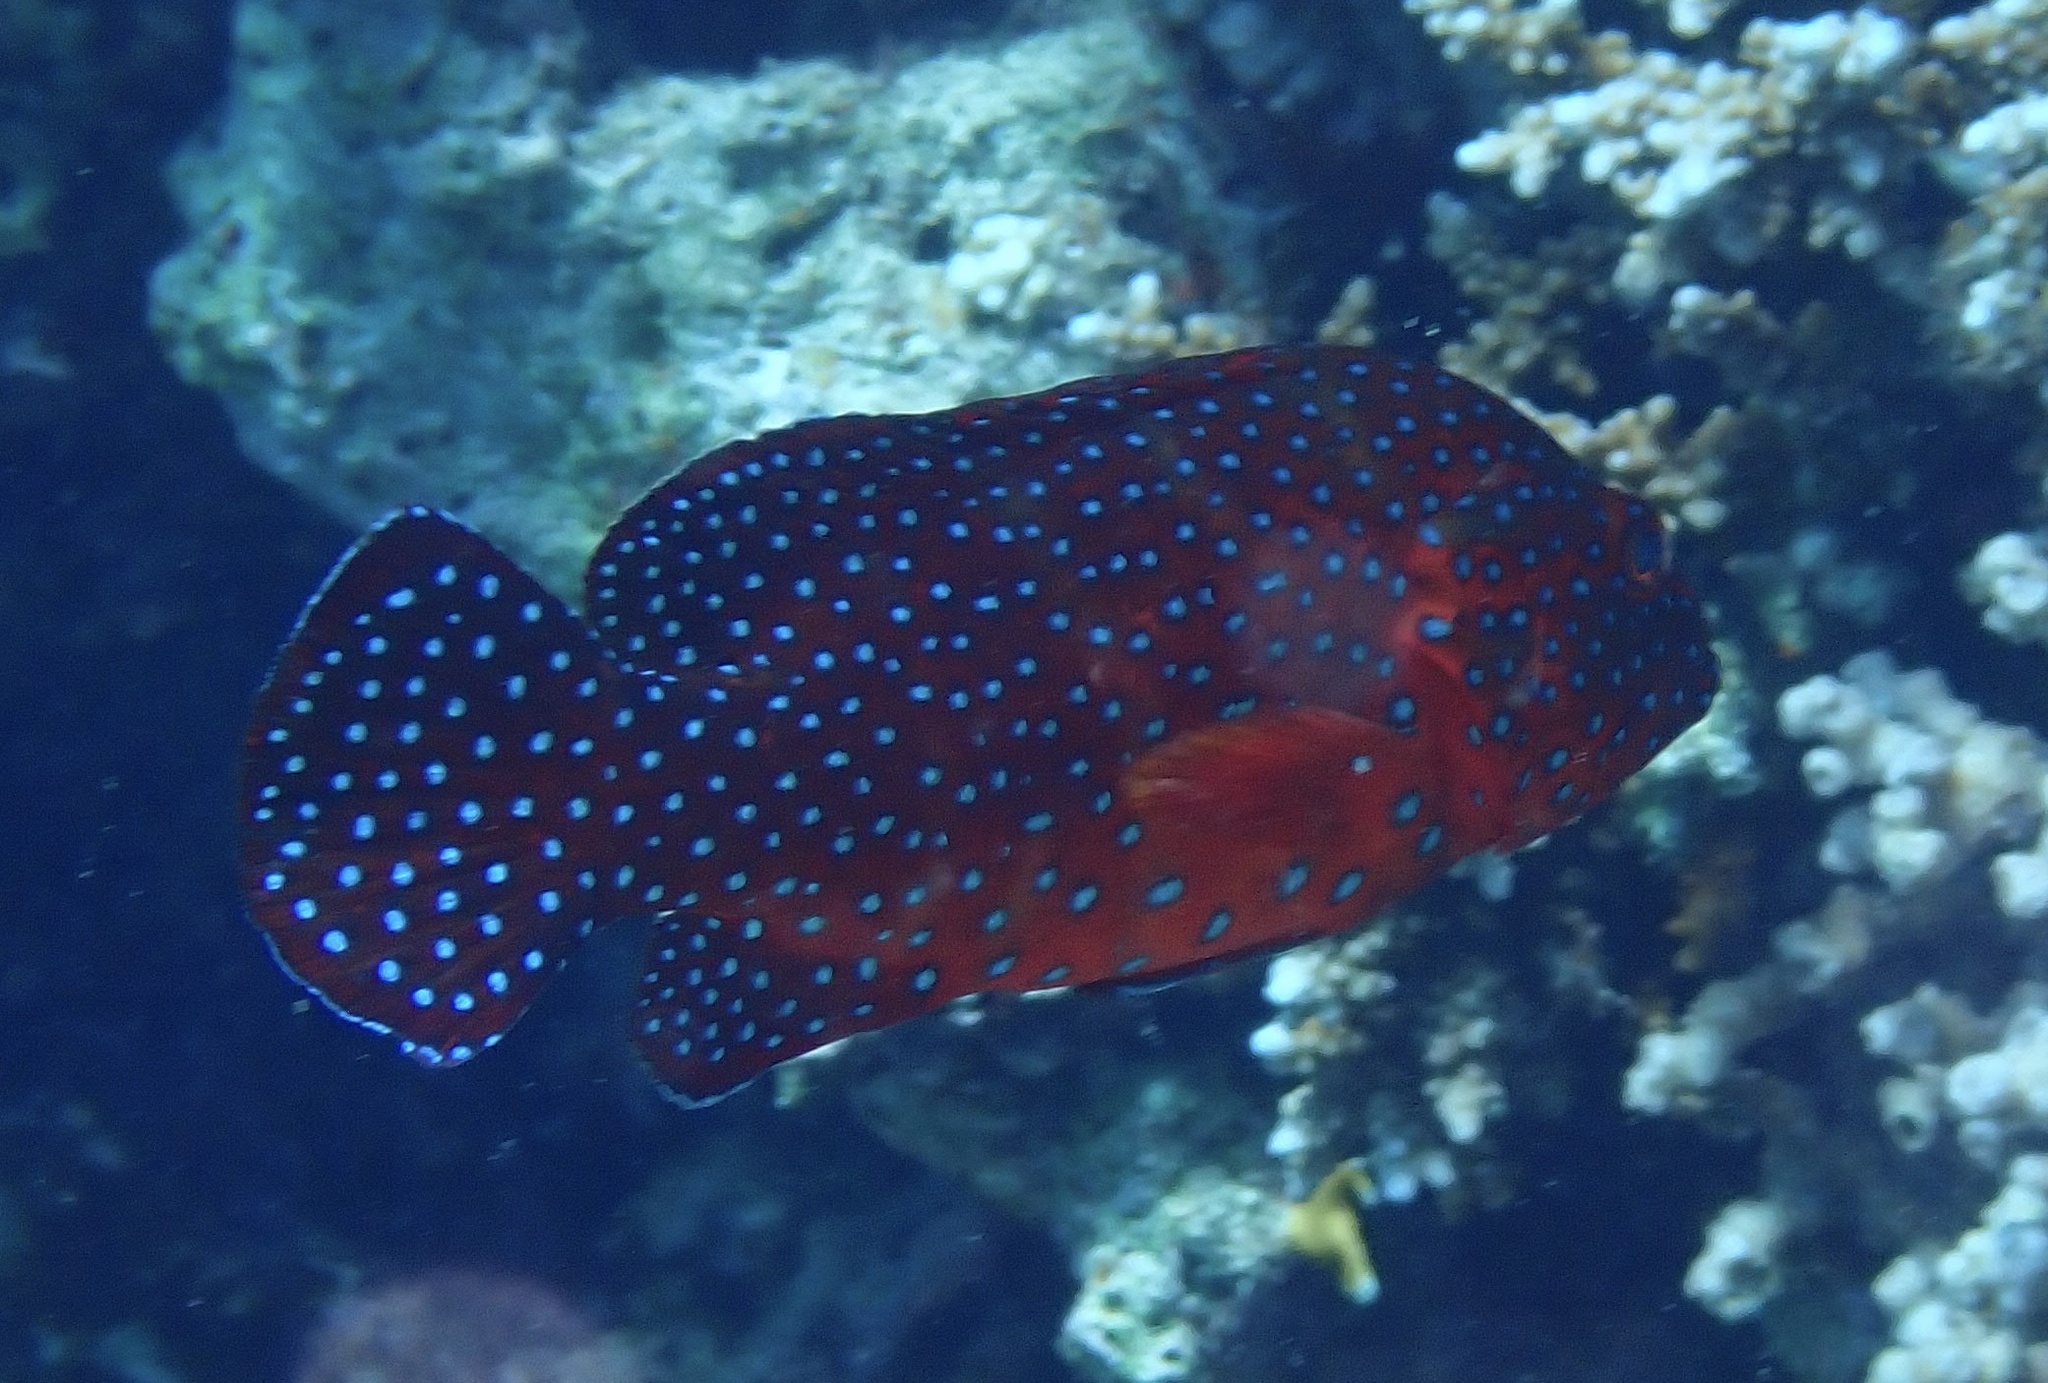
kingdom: Animalia
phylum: Chordata
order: Perciformes
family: Serranidae
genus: Cephalopholis
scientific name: Cephalopholis miniata
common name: Coral hind
